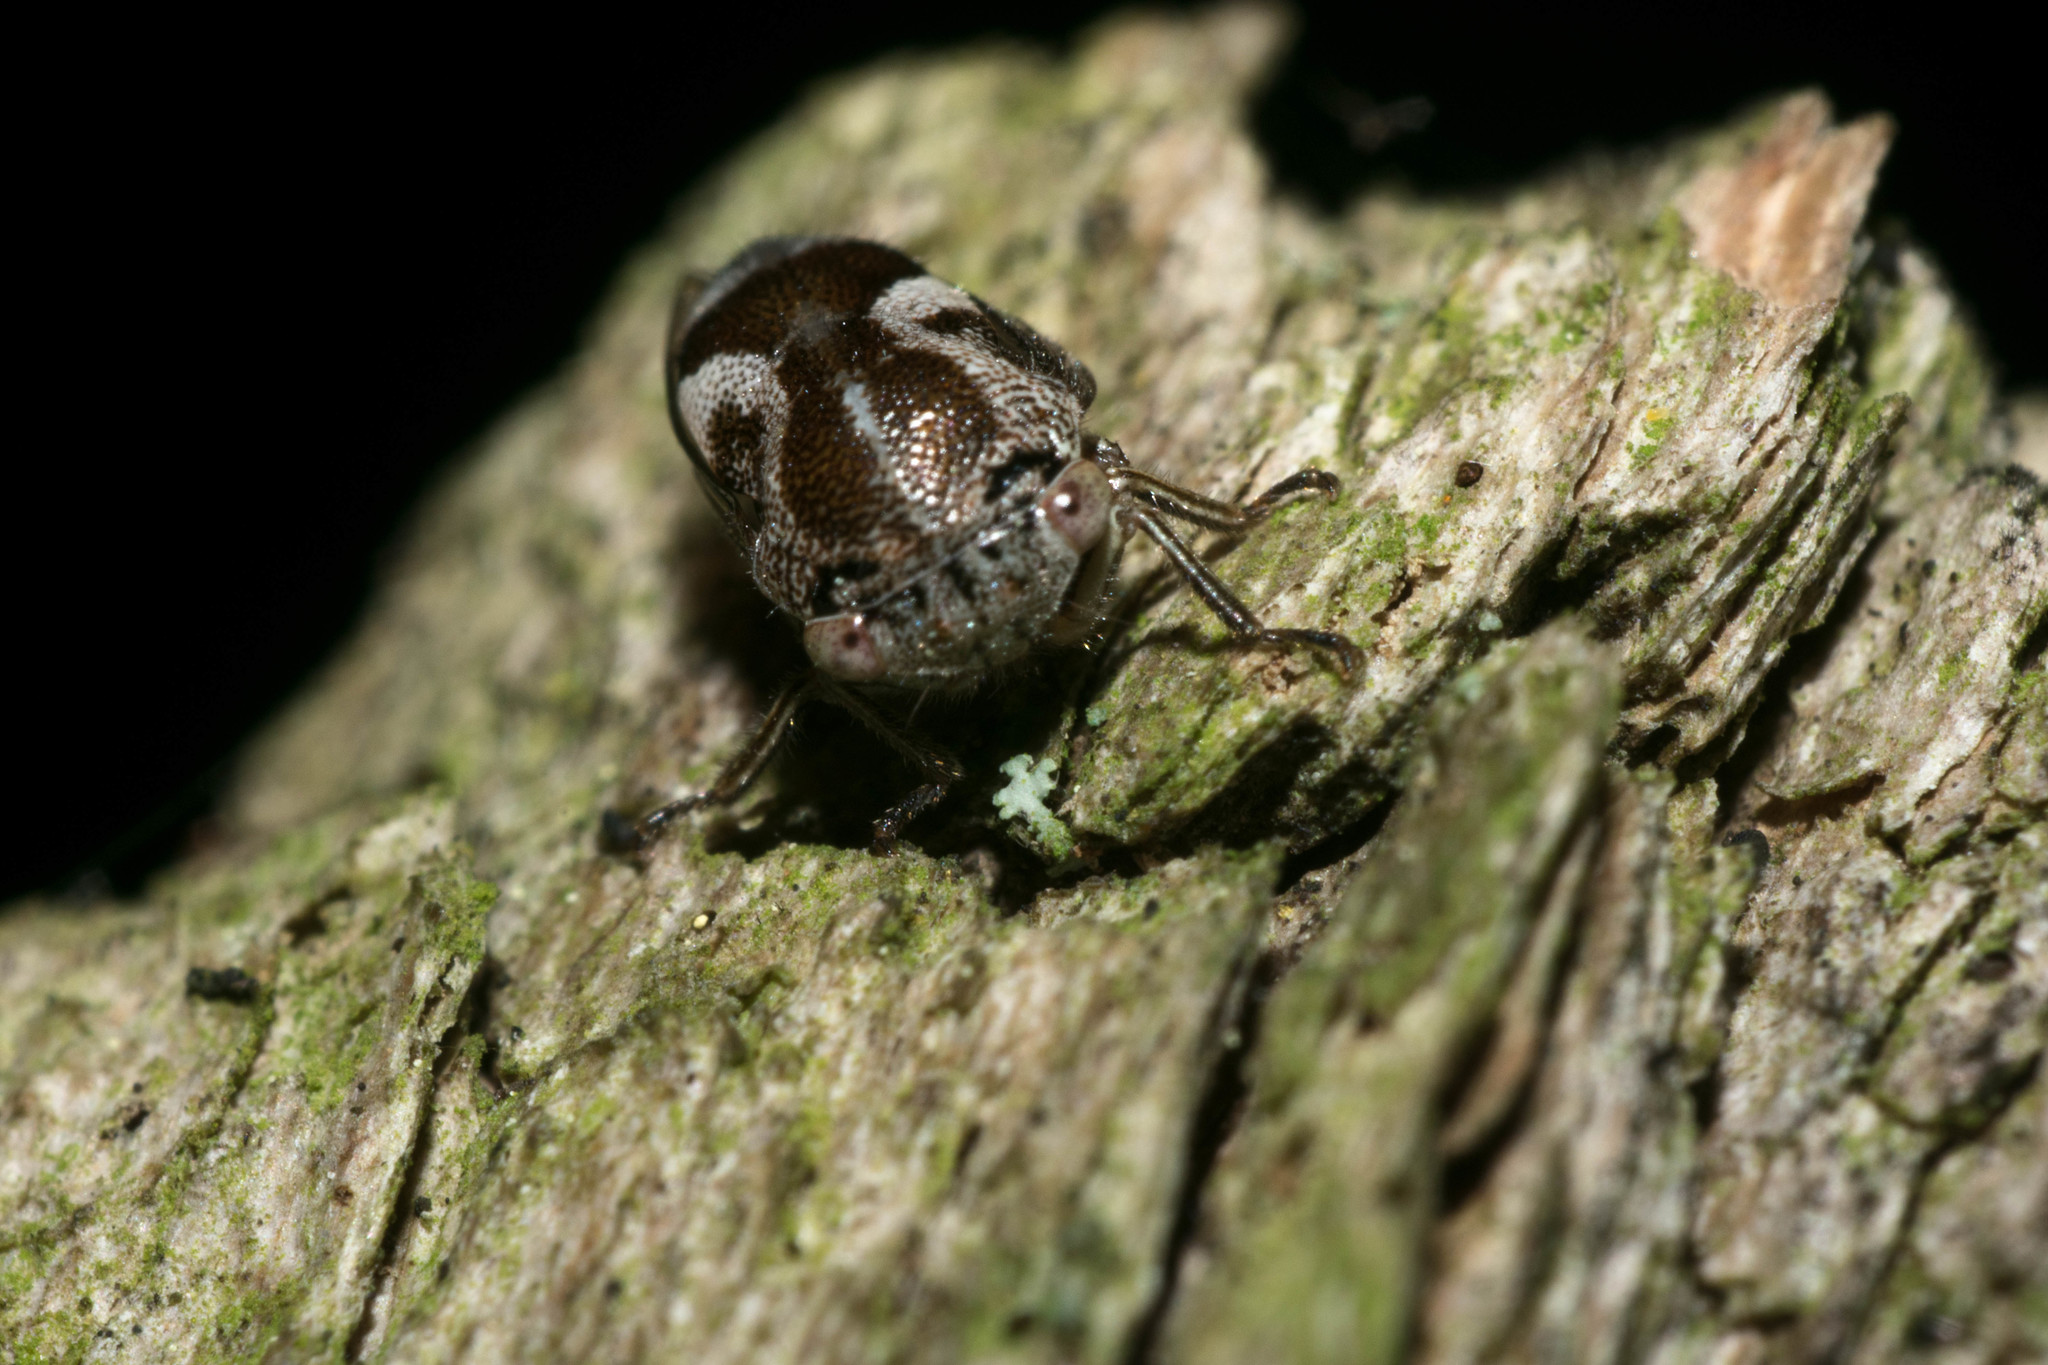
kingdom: Animalia
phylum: Arthropoda
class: Insecta
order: Hemiptera
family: Membracidae
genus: Ophiderma
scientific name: Ophiderma definita
